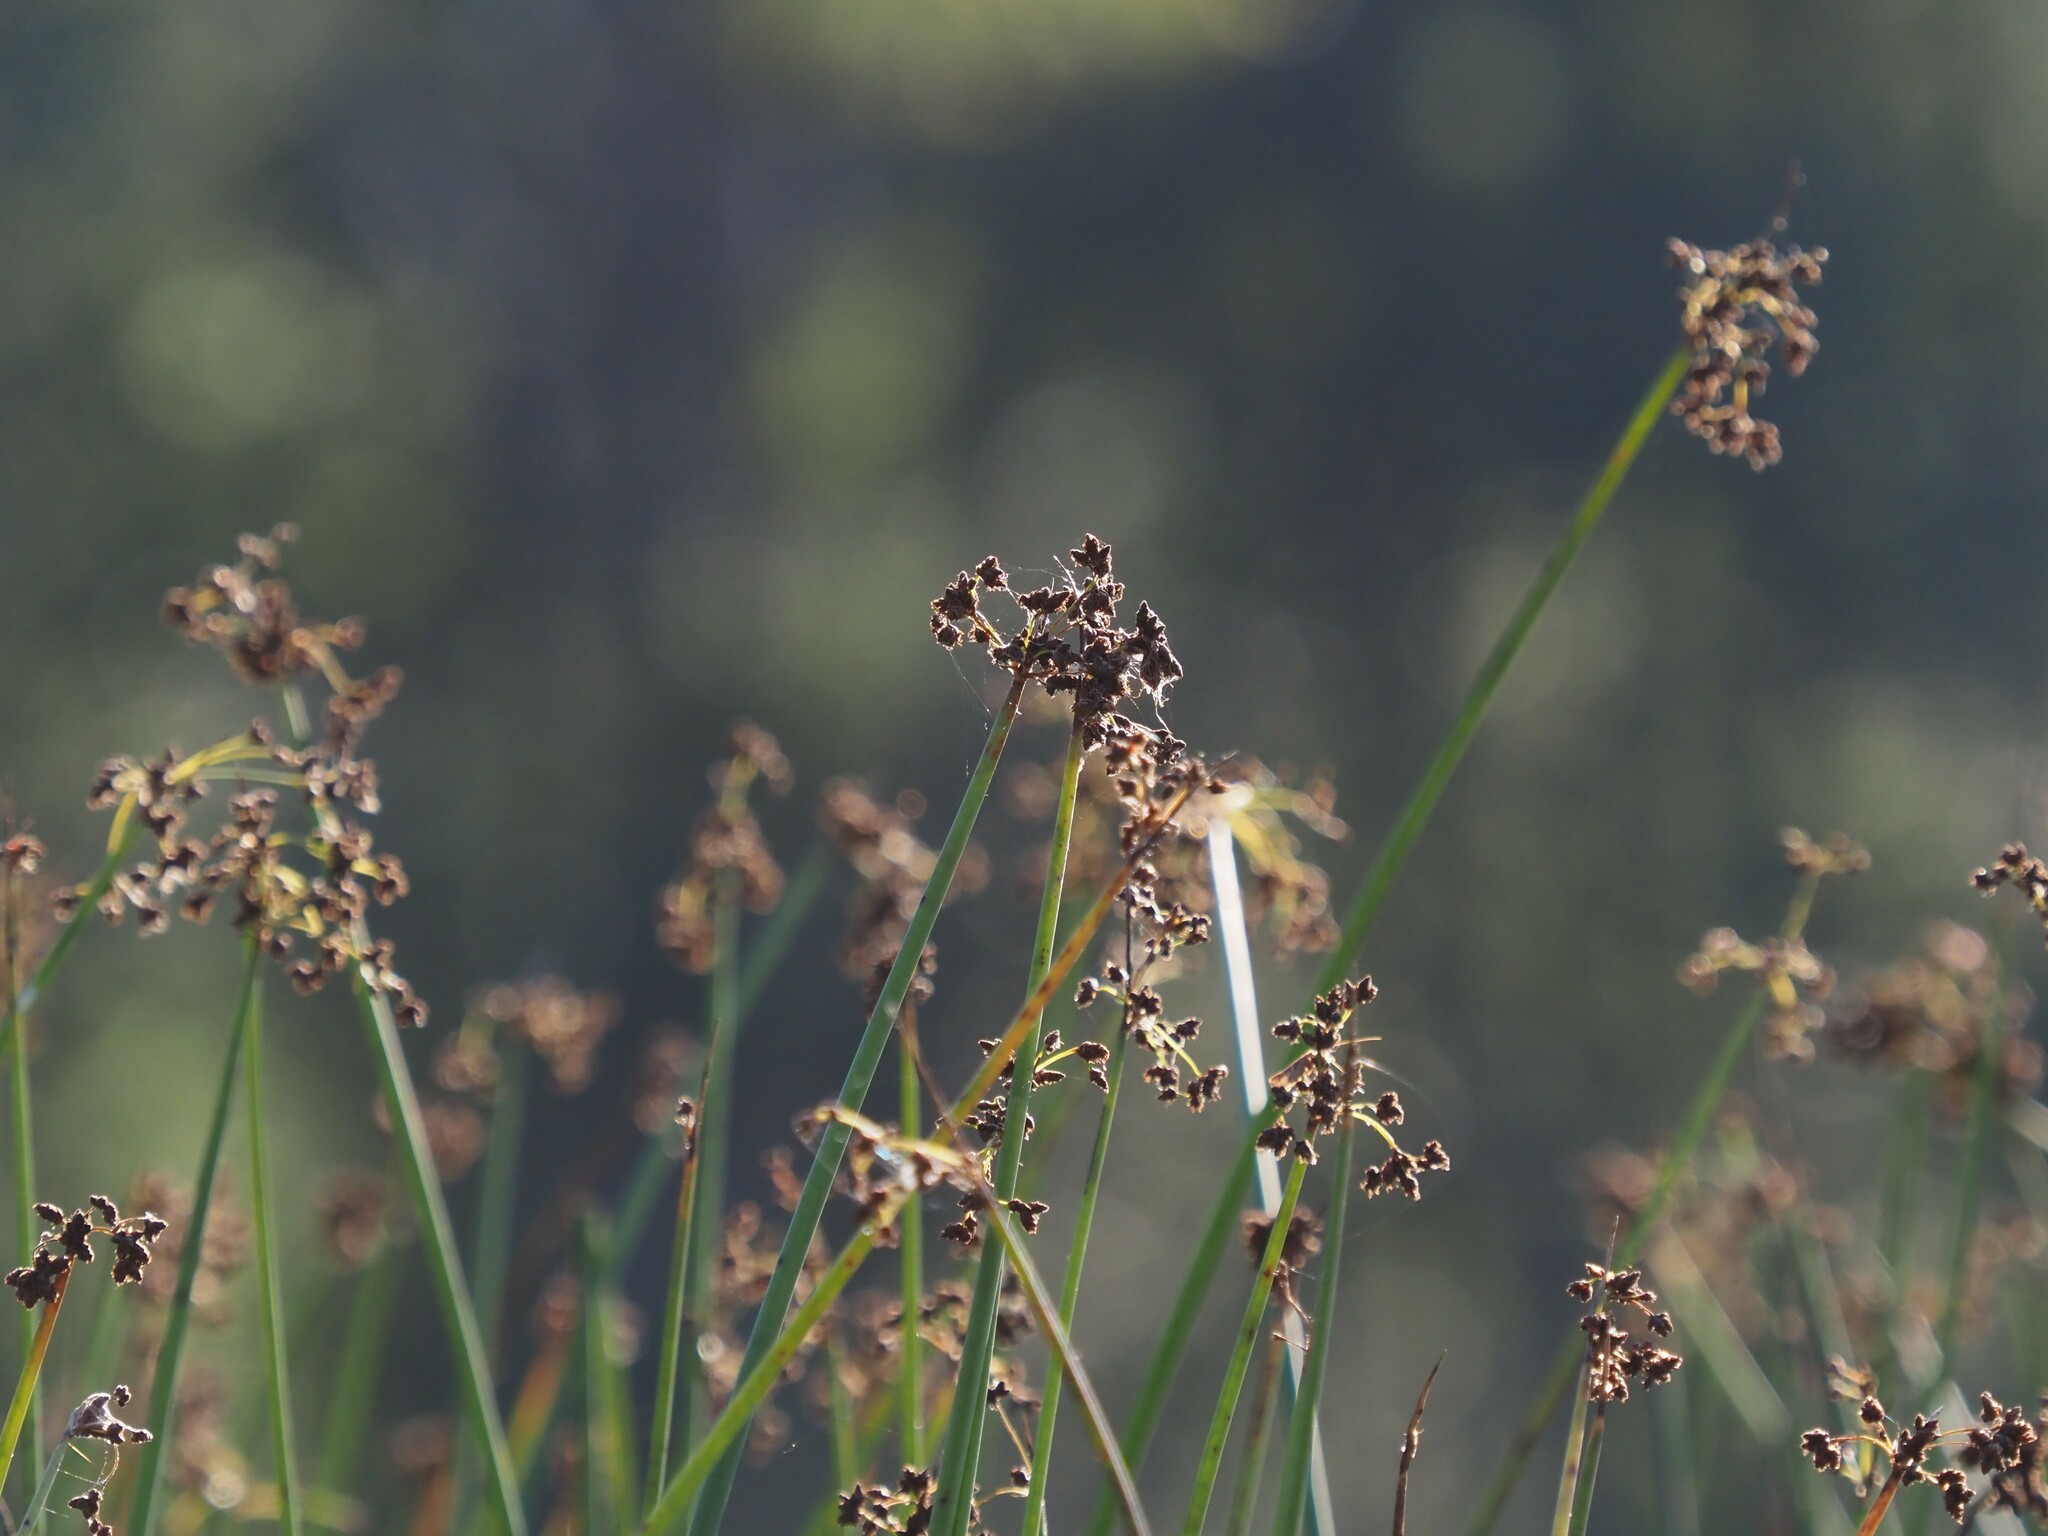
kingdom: Plantae
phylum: Tracheophyta
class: Liliopsida
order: Poales
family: Cyperaceae
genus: Schoenoplectus
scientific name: Schoenoplectus tabernaemontani
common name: Grey club-rush
